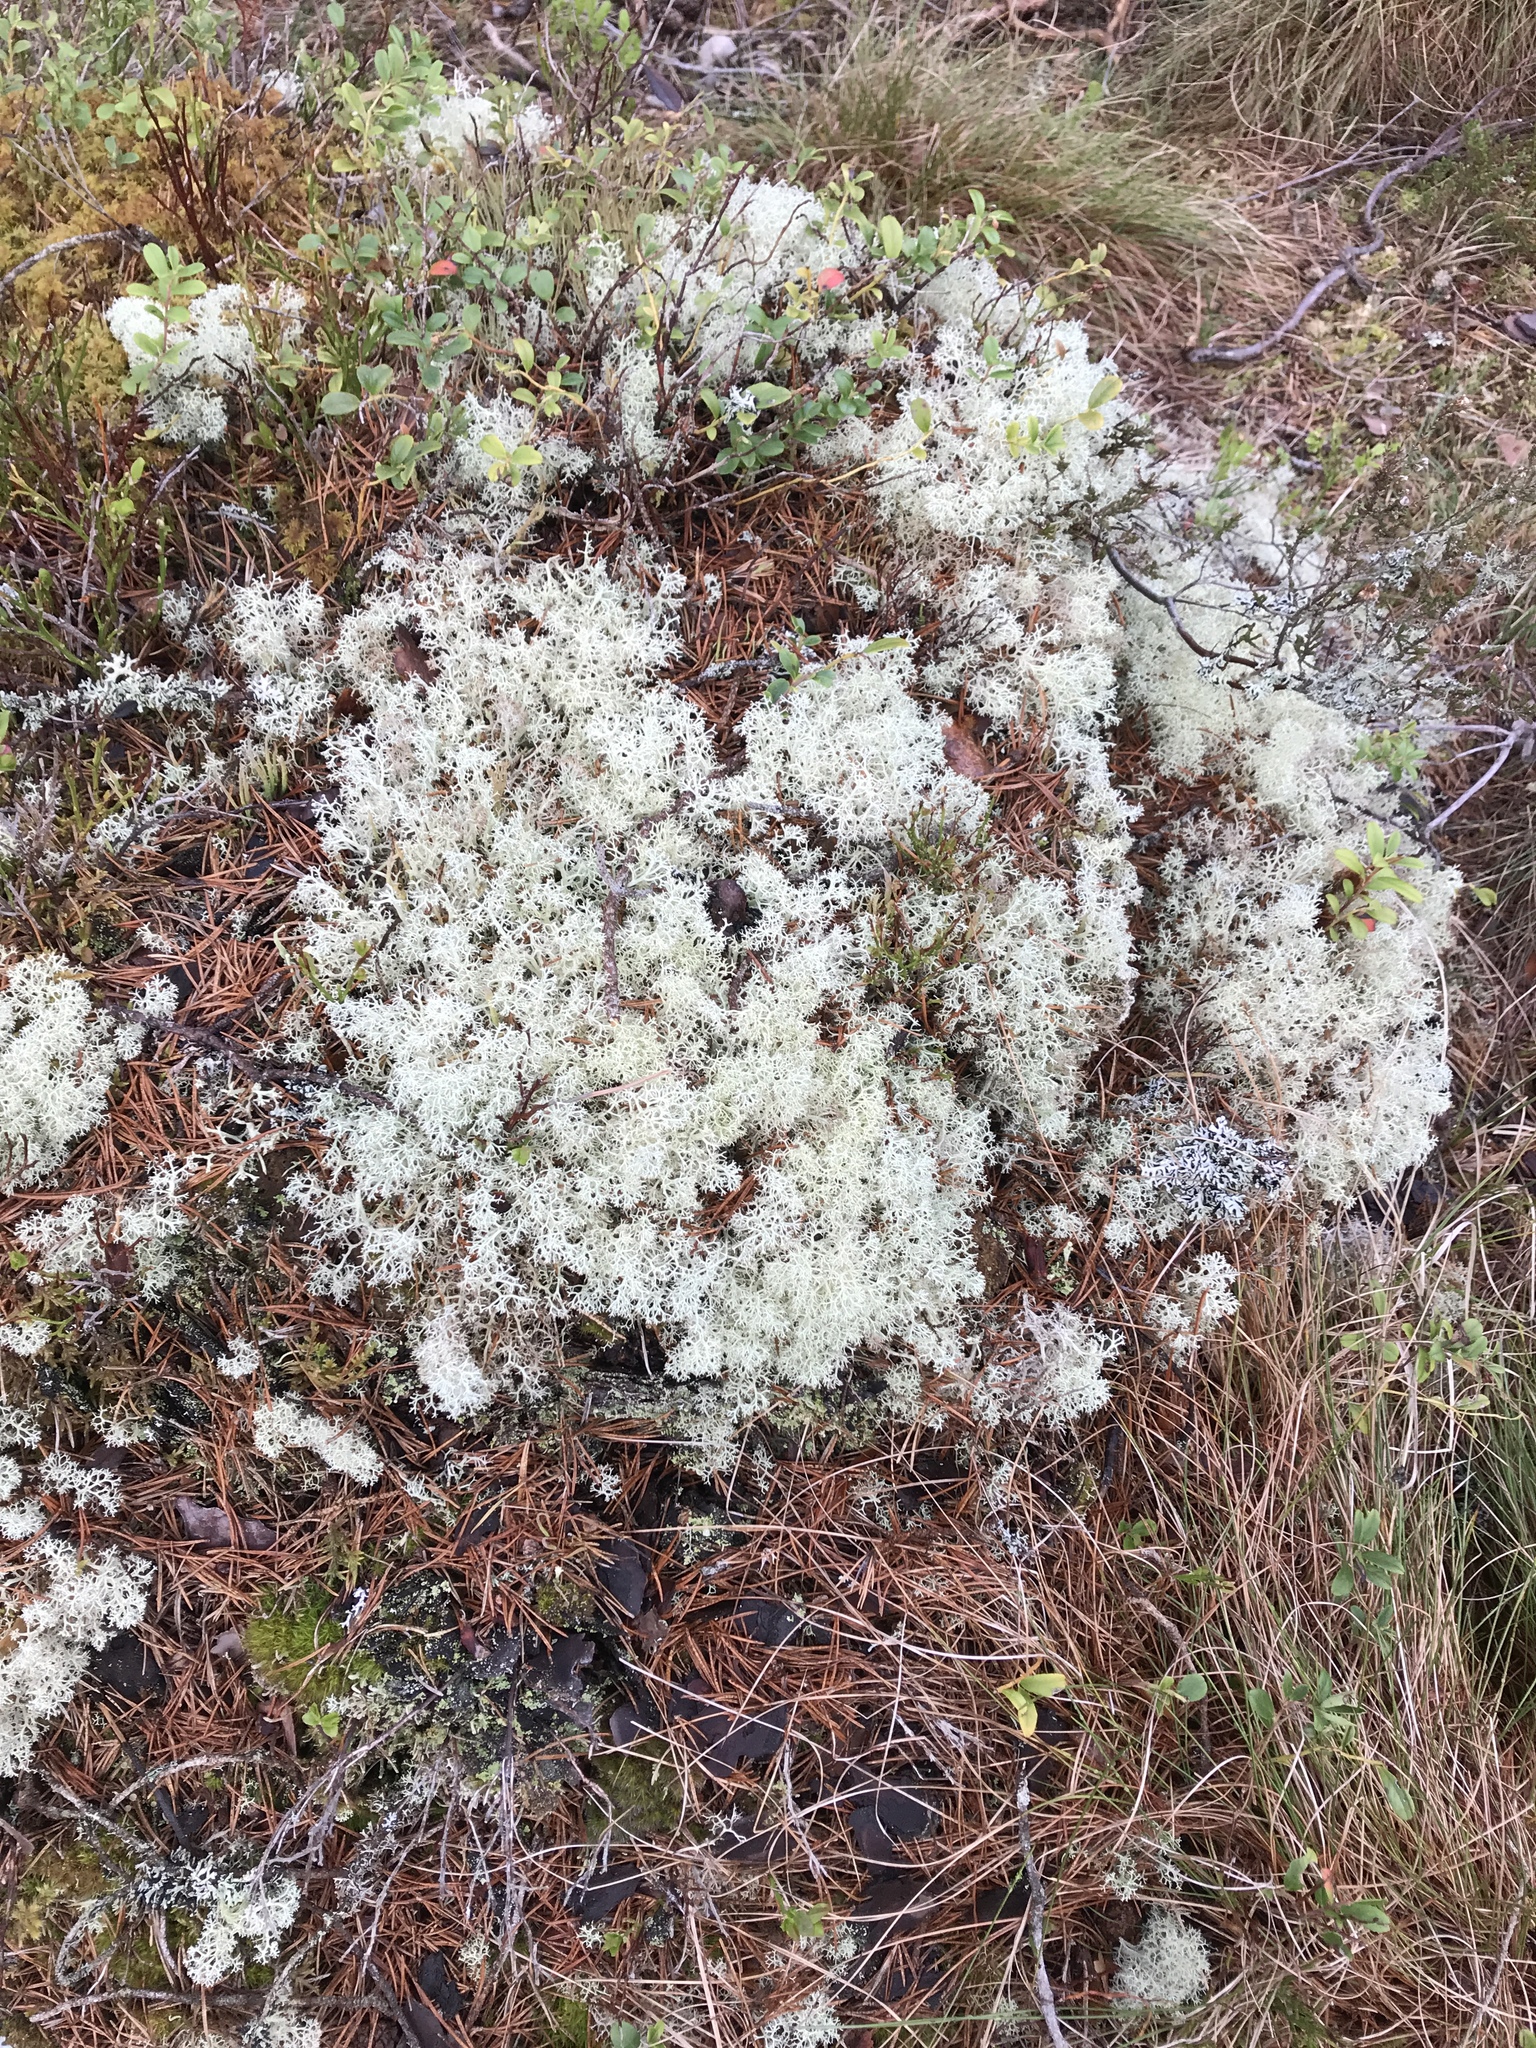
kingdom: Fungi
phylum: Ascomycota
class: Lecanoromycetes
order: Lecanorales
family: Cladoniaceae
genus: Cladonia
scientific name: Cladonia portentosa
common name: Reindeer lichen
